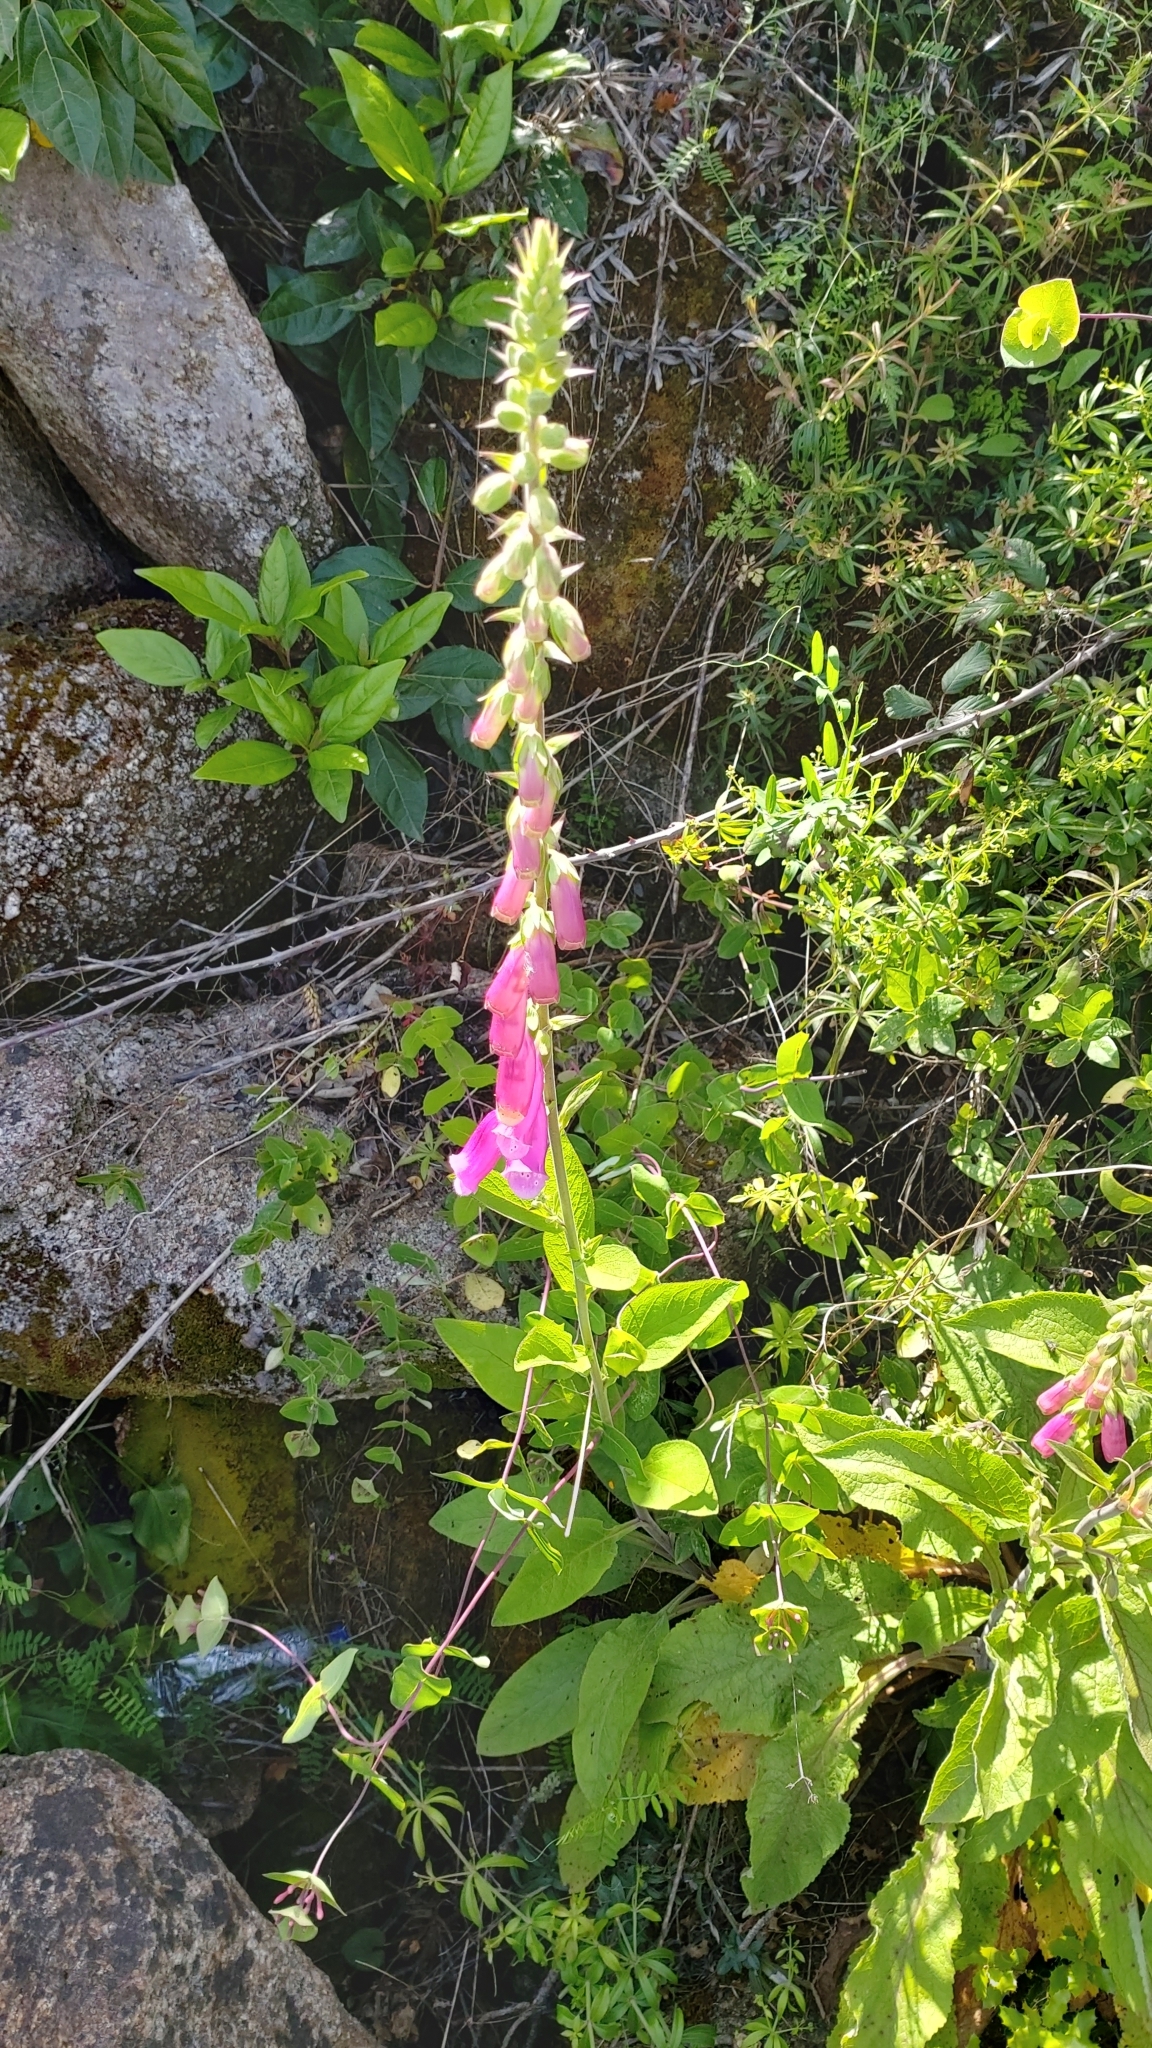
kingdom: Plantae
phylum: Tracheophyta
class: Magnoliopsida
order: Lamiales
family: Plantaginaceae
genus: Digitalis
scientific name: Digitalis purpurea
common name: Foxglove
